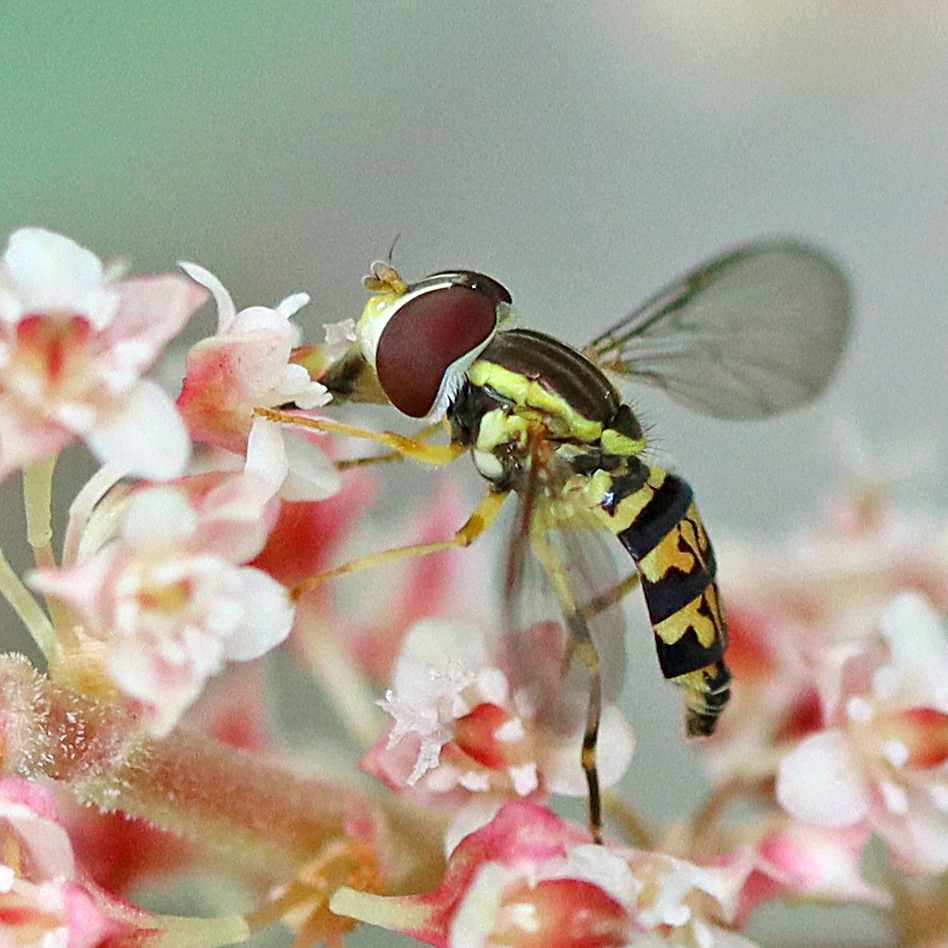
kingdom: Animalia
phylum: Arthropoda
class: Insecta
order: Diptera
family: Syrphidae
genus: Toxomerus
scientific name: Toxomerus geminatus
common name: Eastern calligrapher
